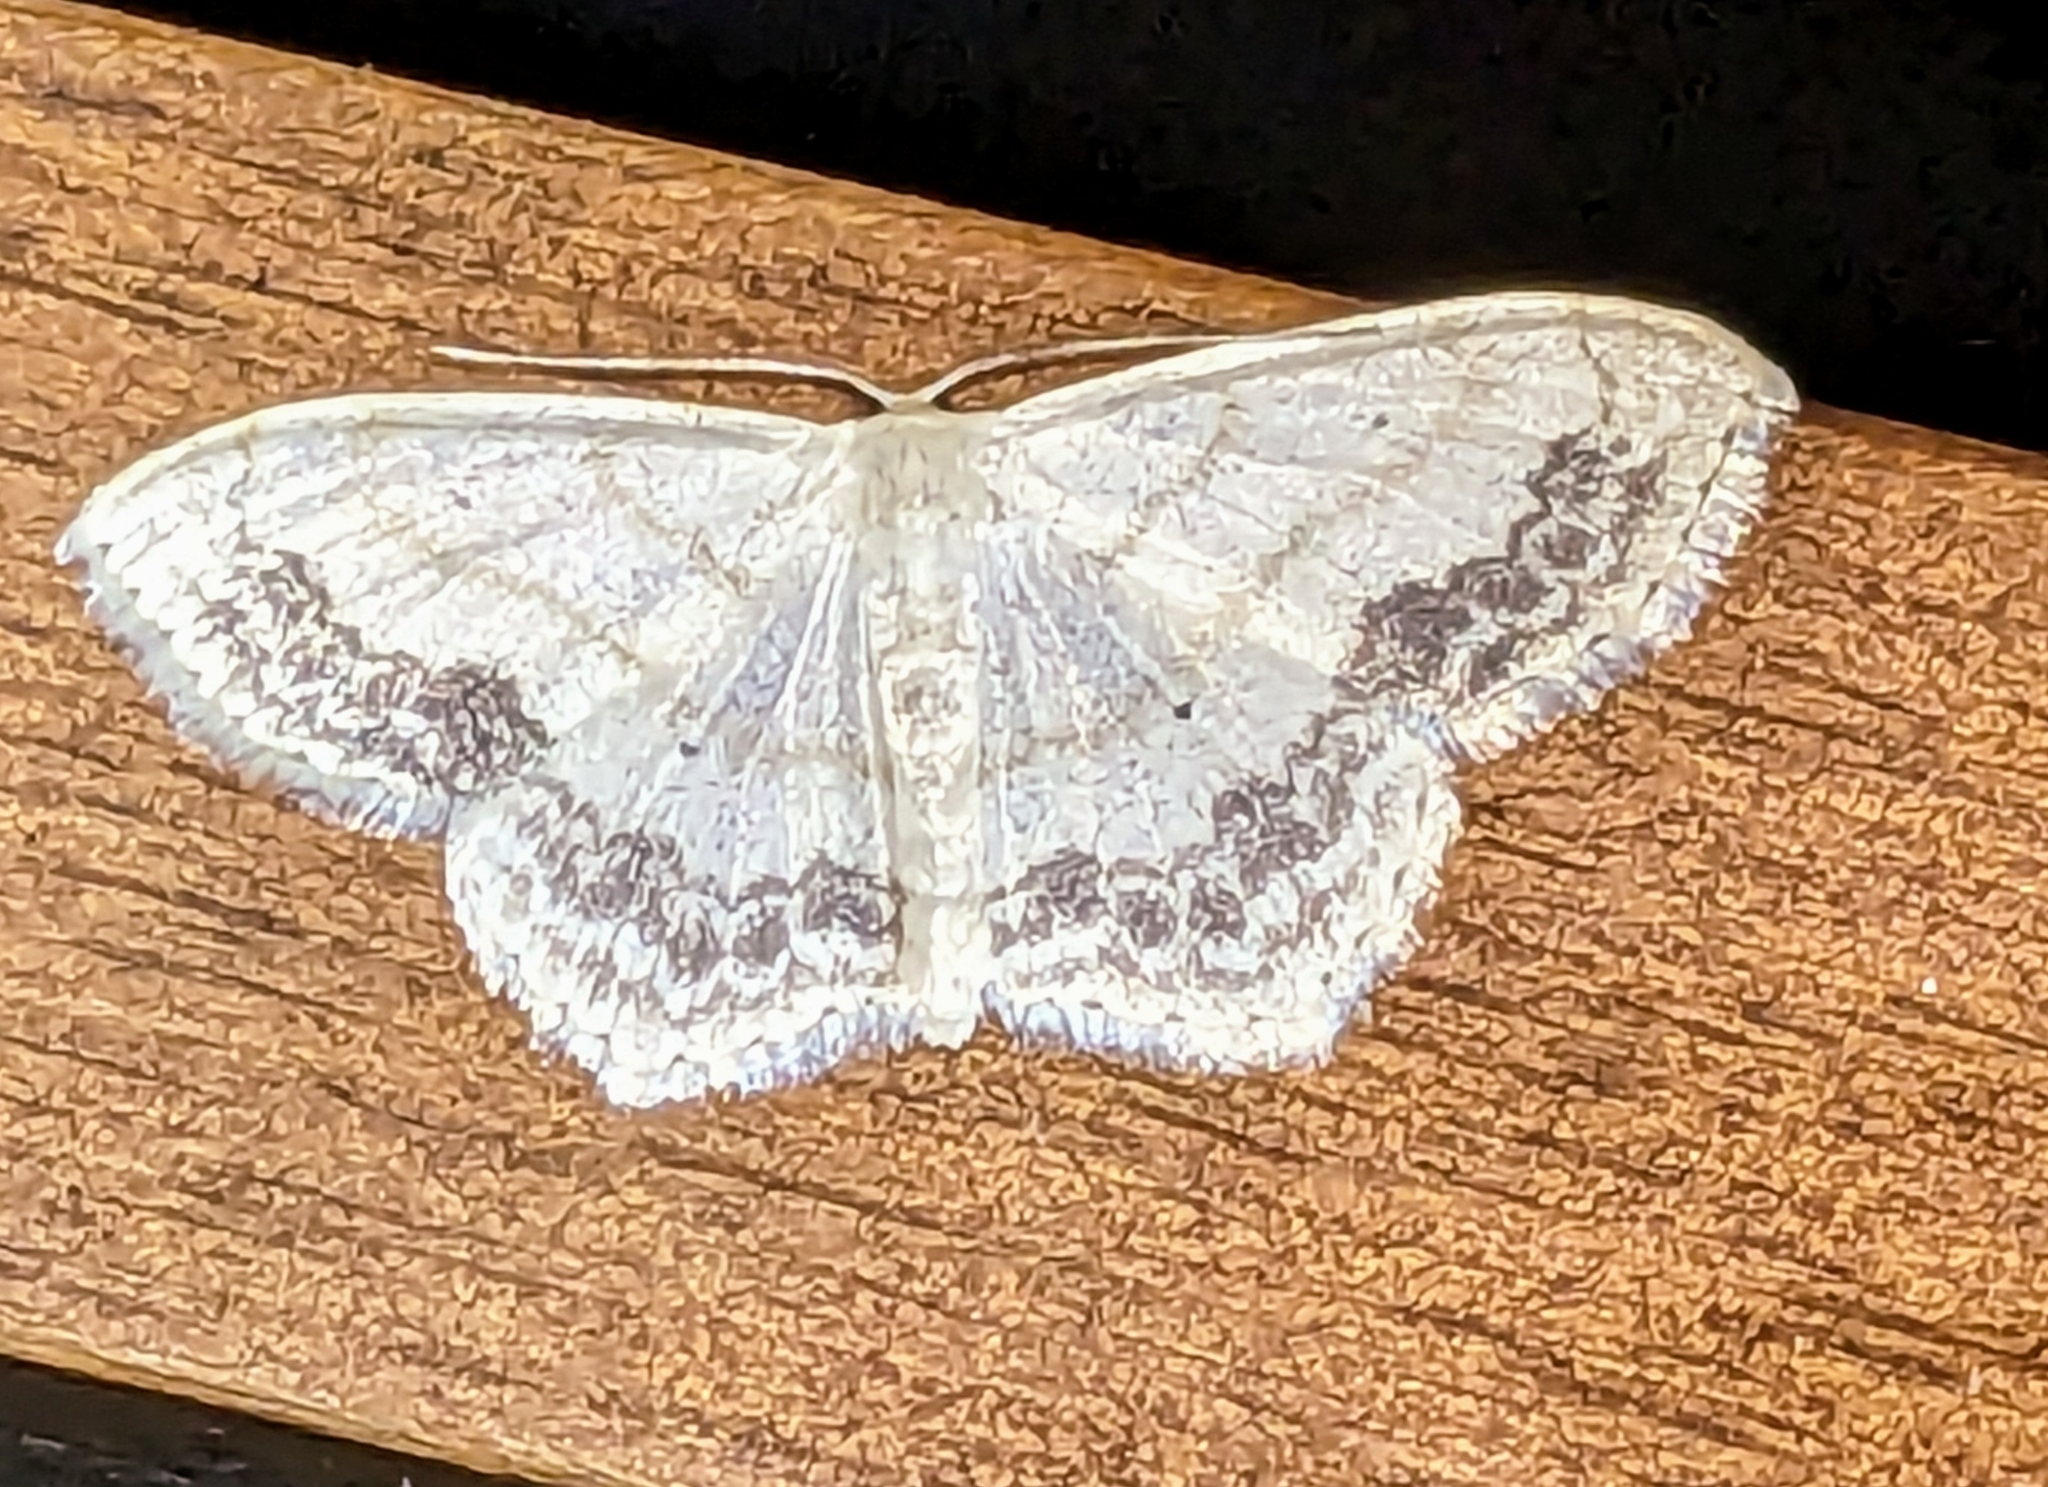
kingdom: Animalia
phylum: Arthropoda
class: Insecta
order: Lepidoptera
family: Geometridae
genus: Scopula
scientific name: Scopula limboundata
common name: Large lace border
